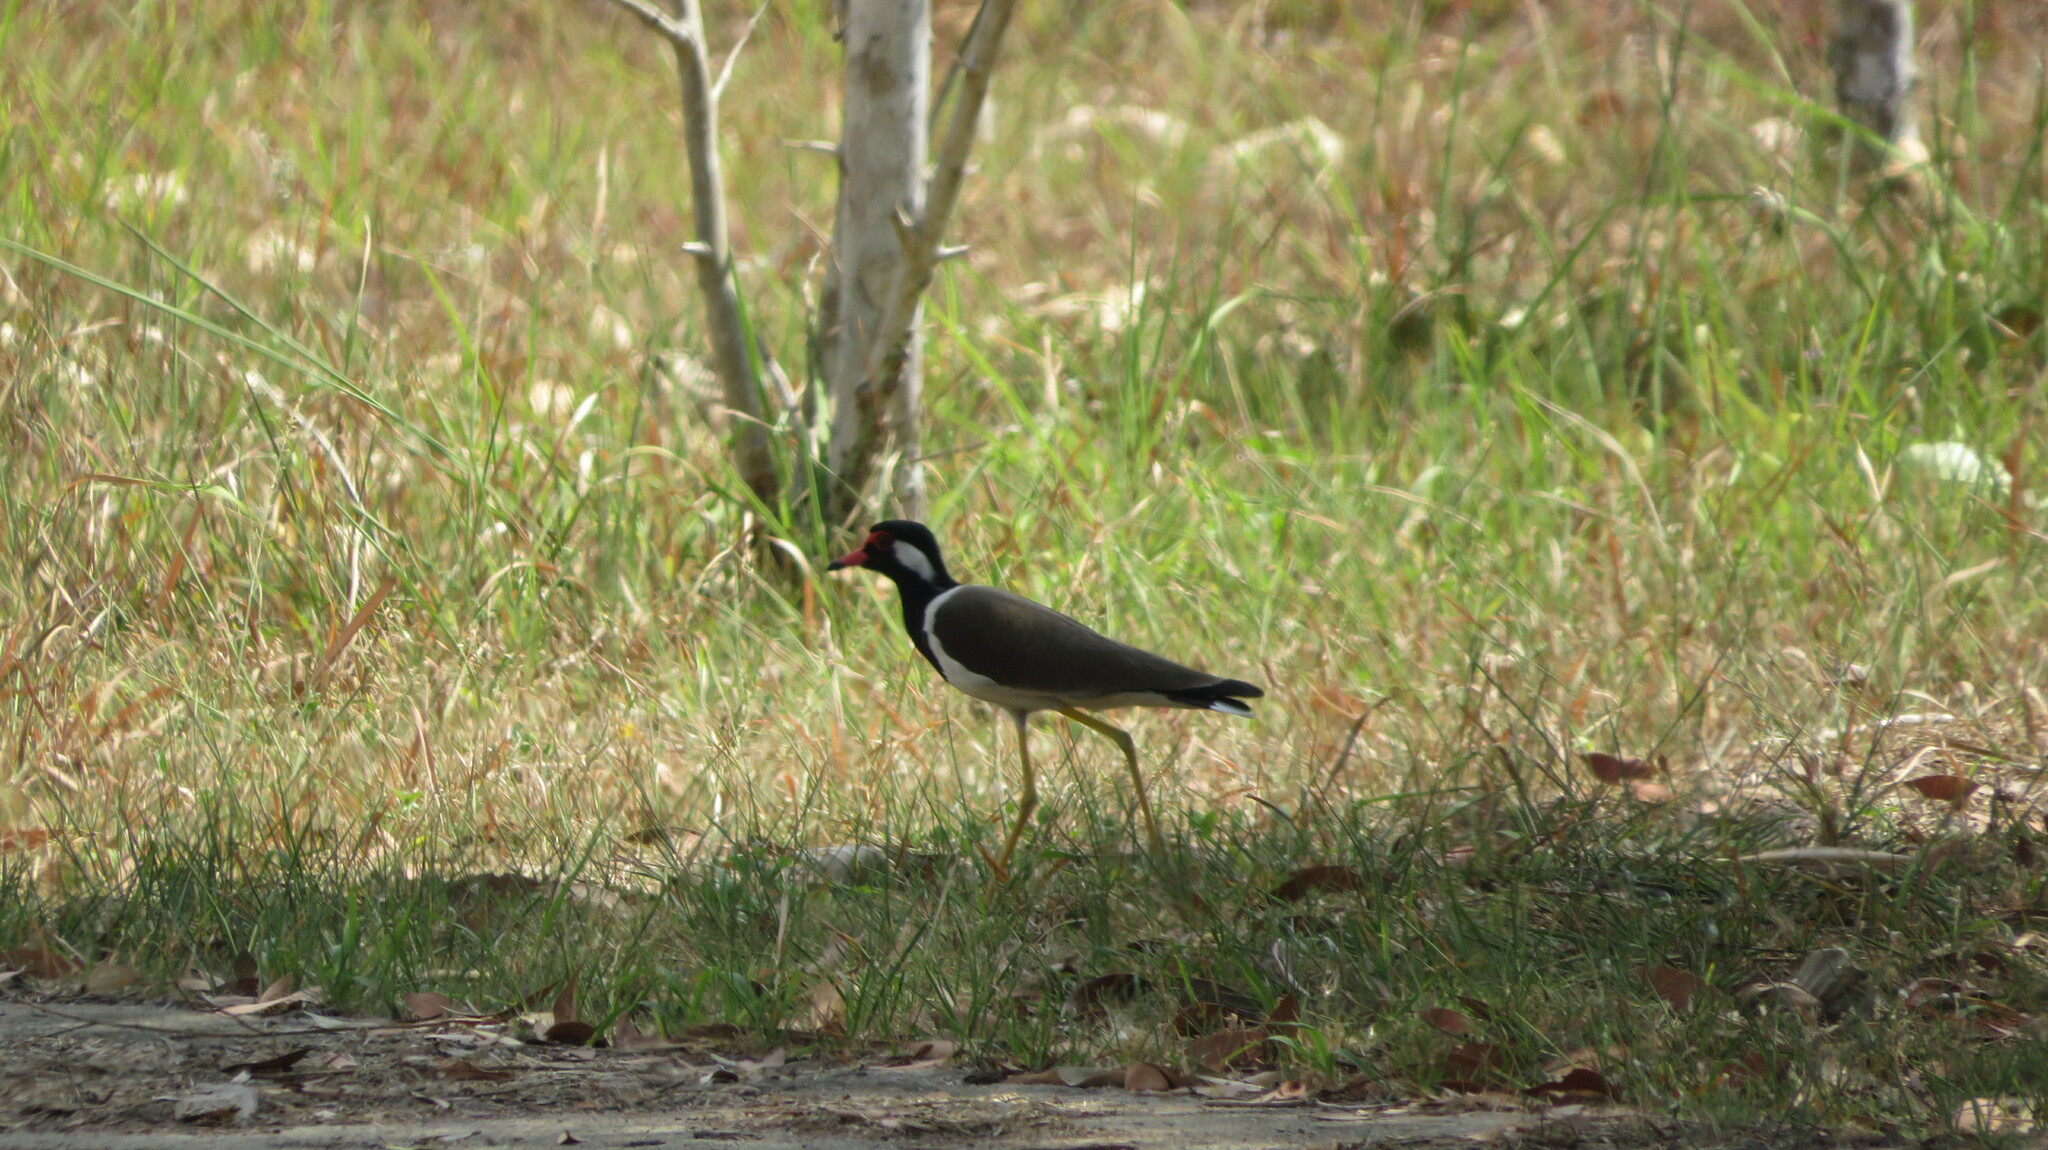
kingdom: Animalia
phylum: Chordata
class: Aves
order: Charadriiformes
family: Charadriidae
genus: Vanellus
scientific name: Vanellus indicus
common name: Red-wattled lapwing
